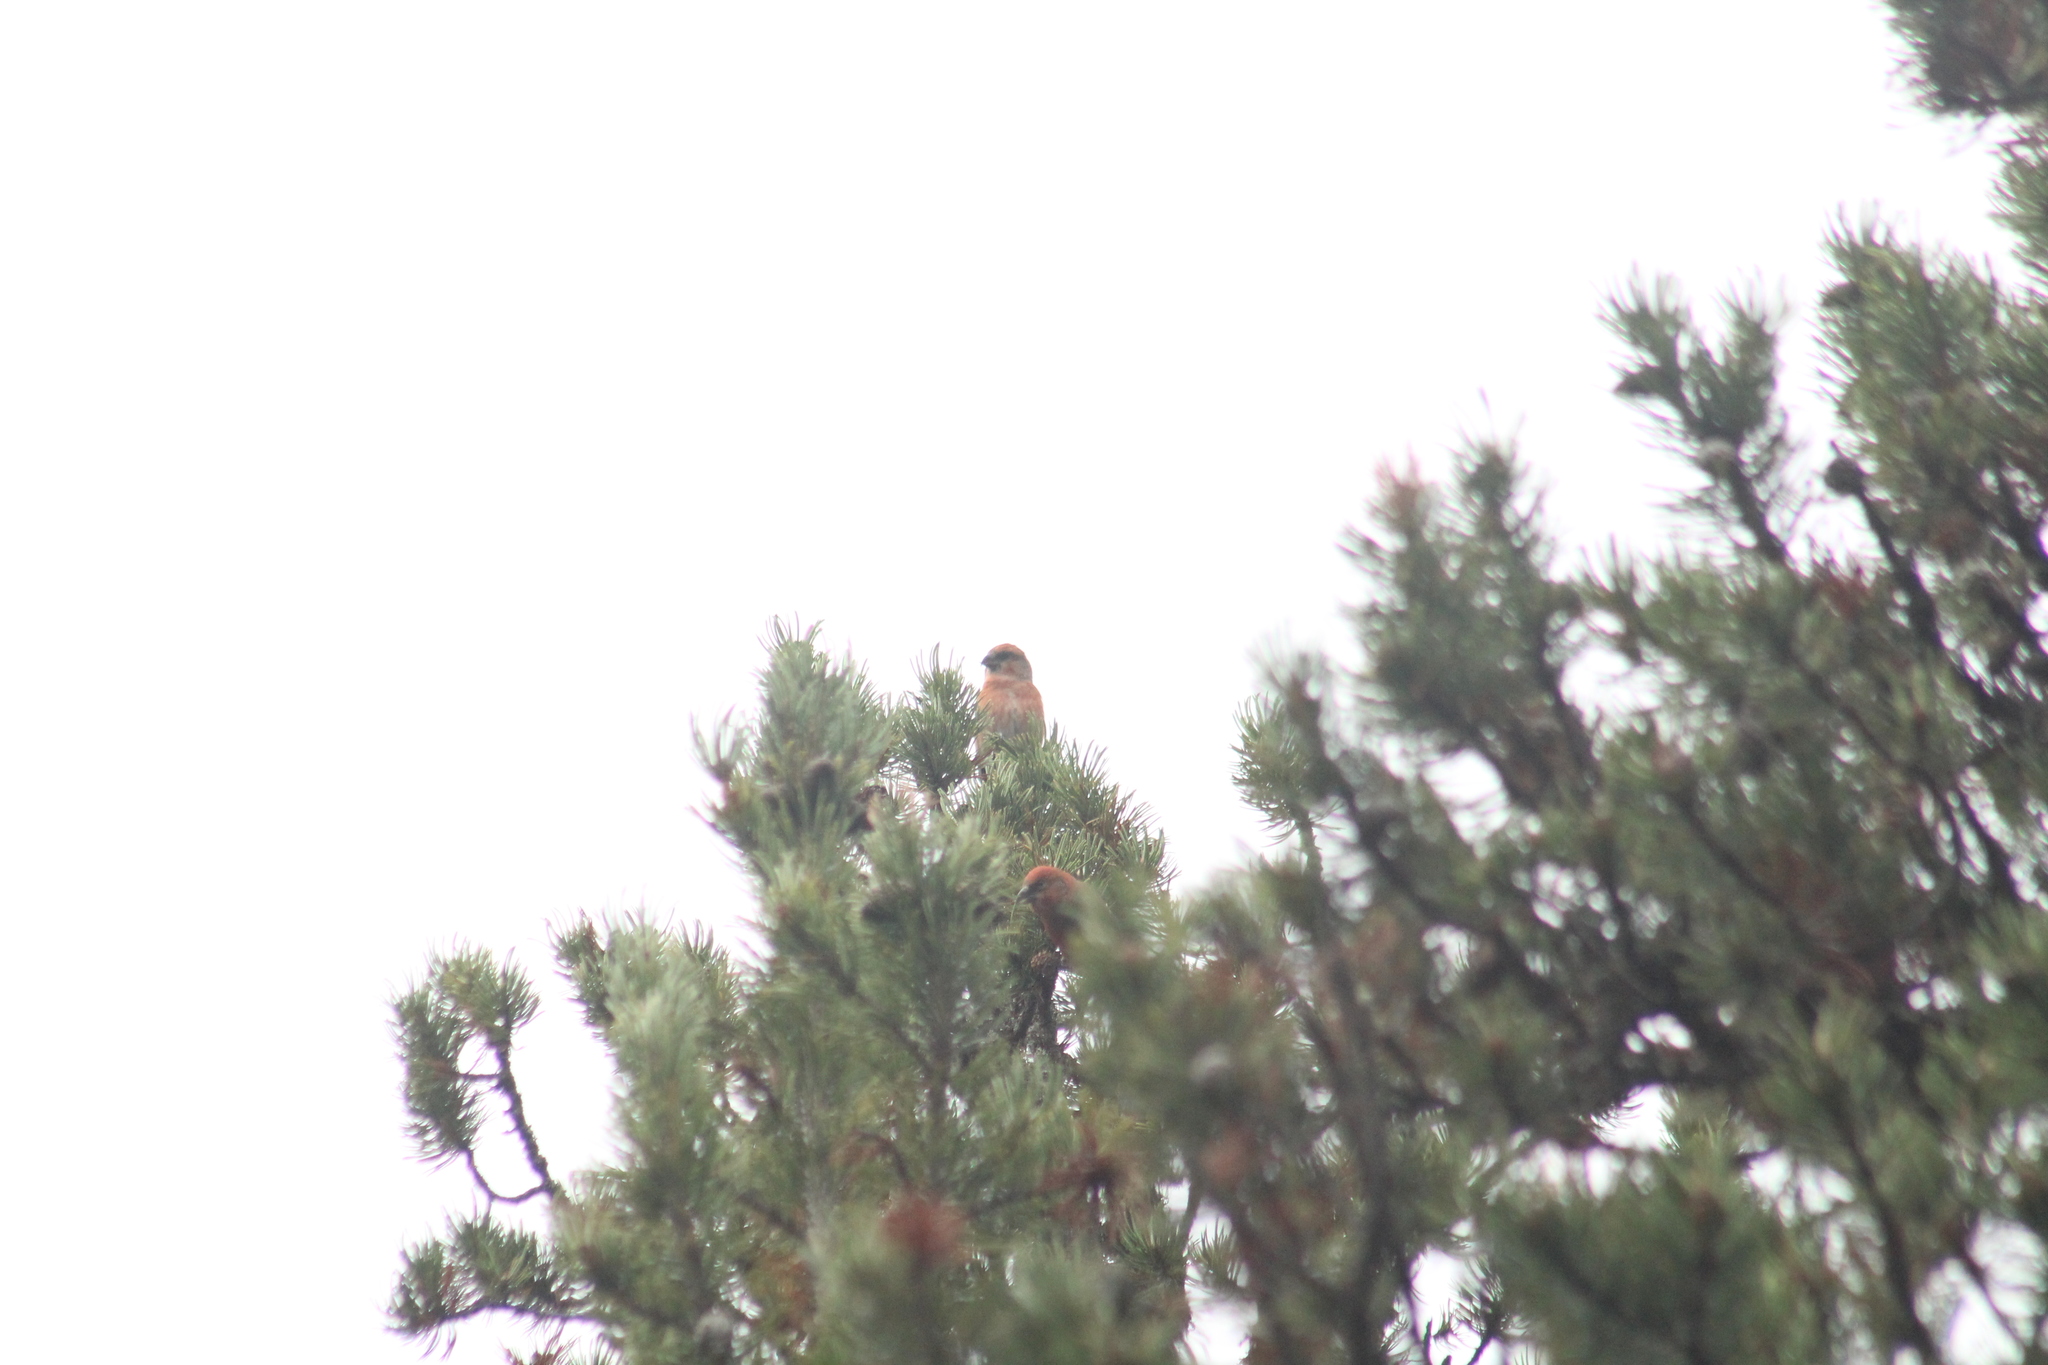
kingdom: Animalia
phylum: Chordata
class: Aves
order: Passeriformes
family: Fringillidae
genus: Loxia
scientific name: Loxia curvirostra
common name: Red crossbill
